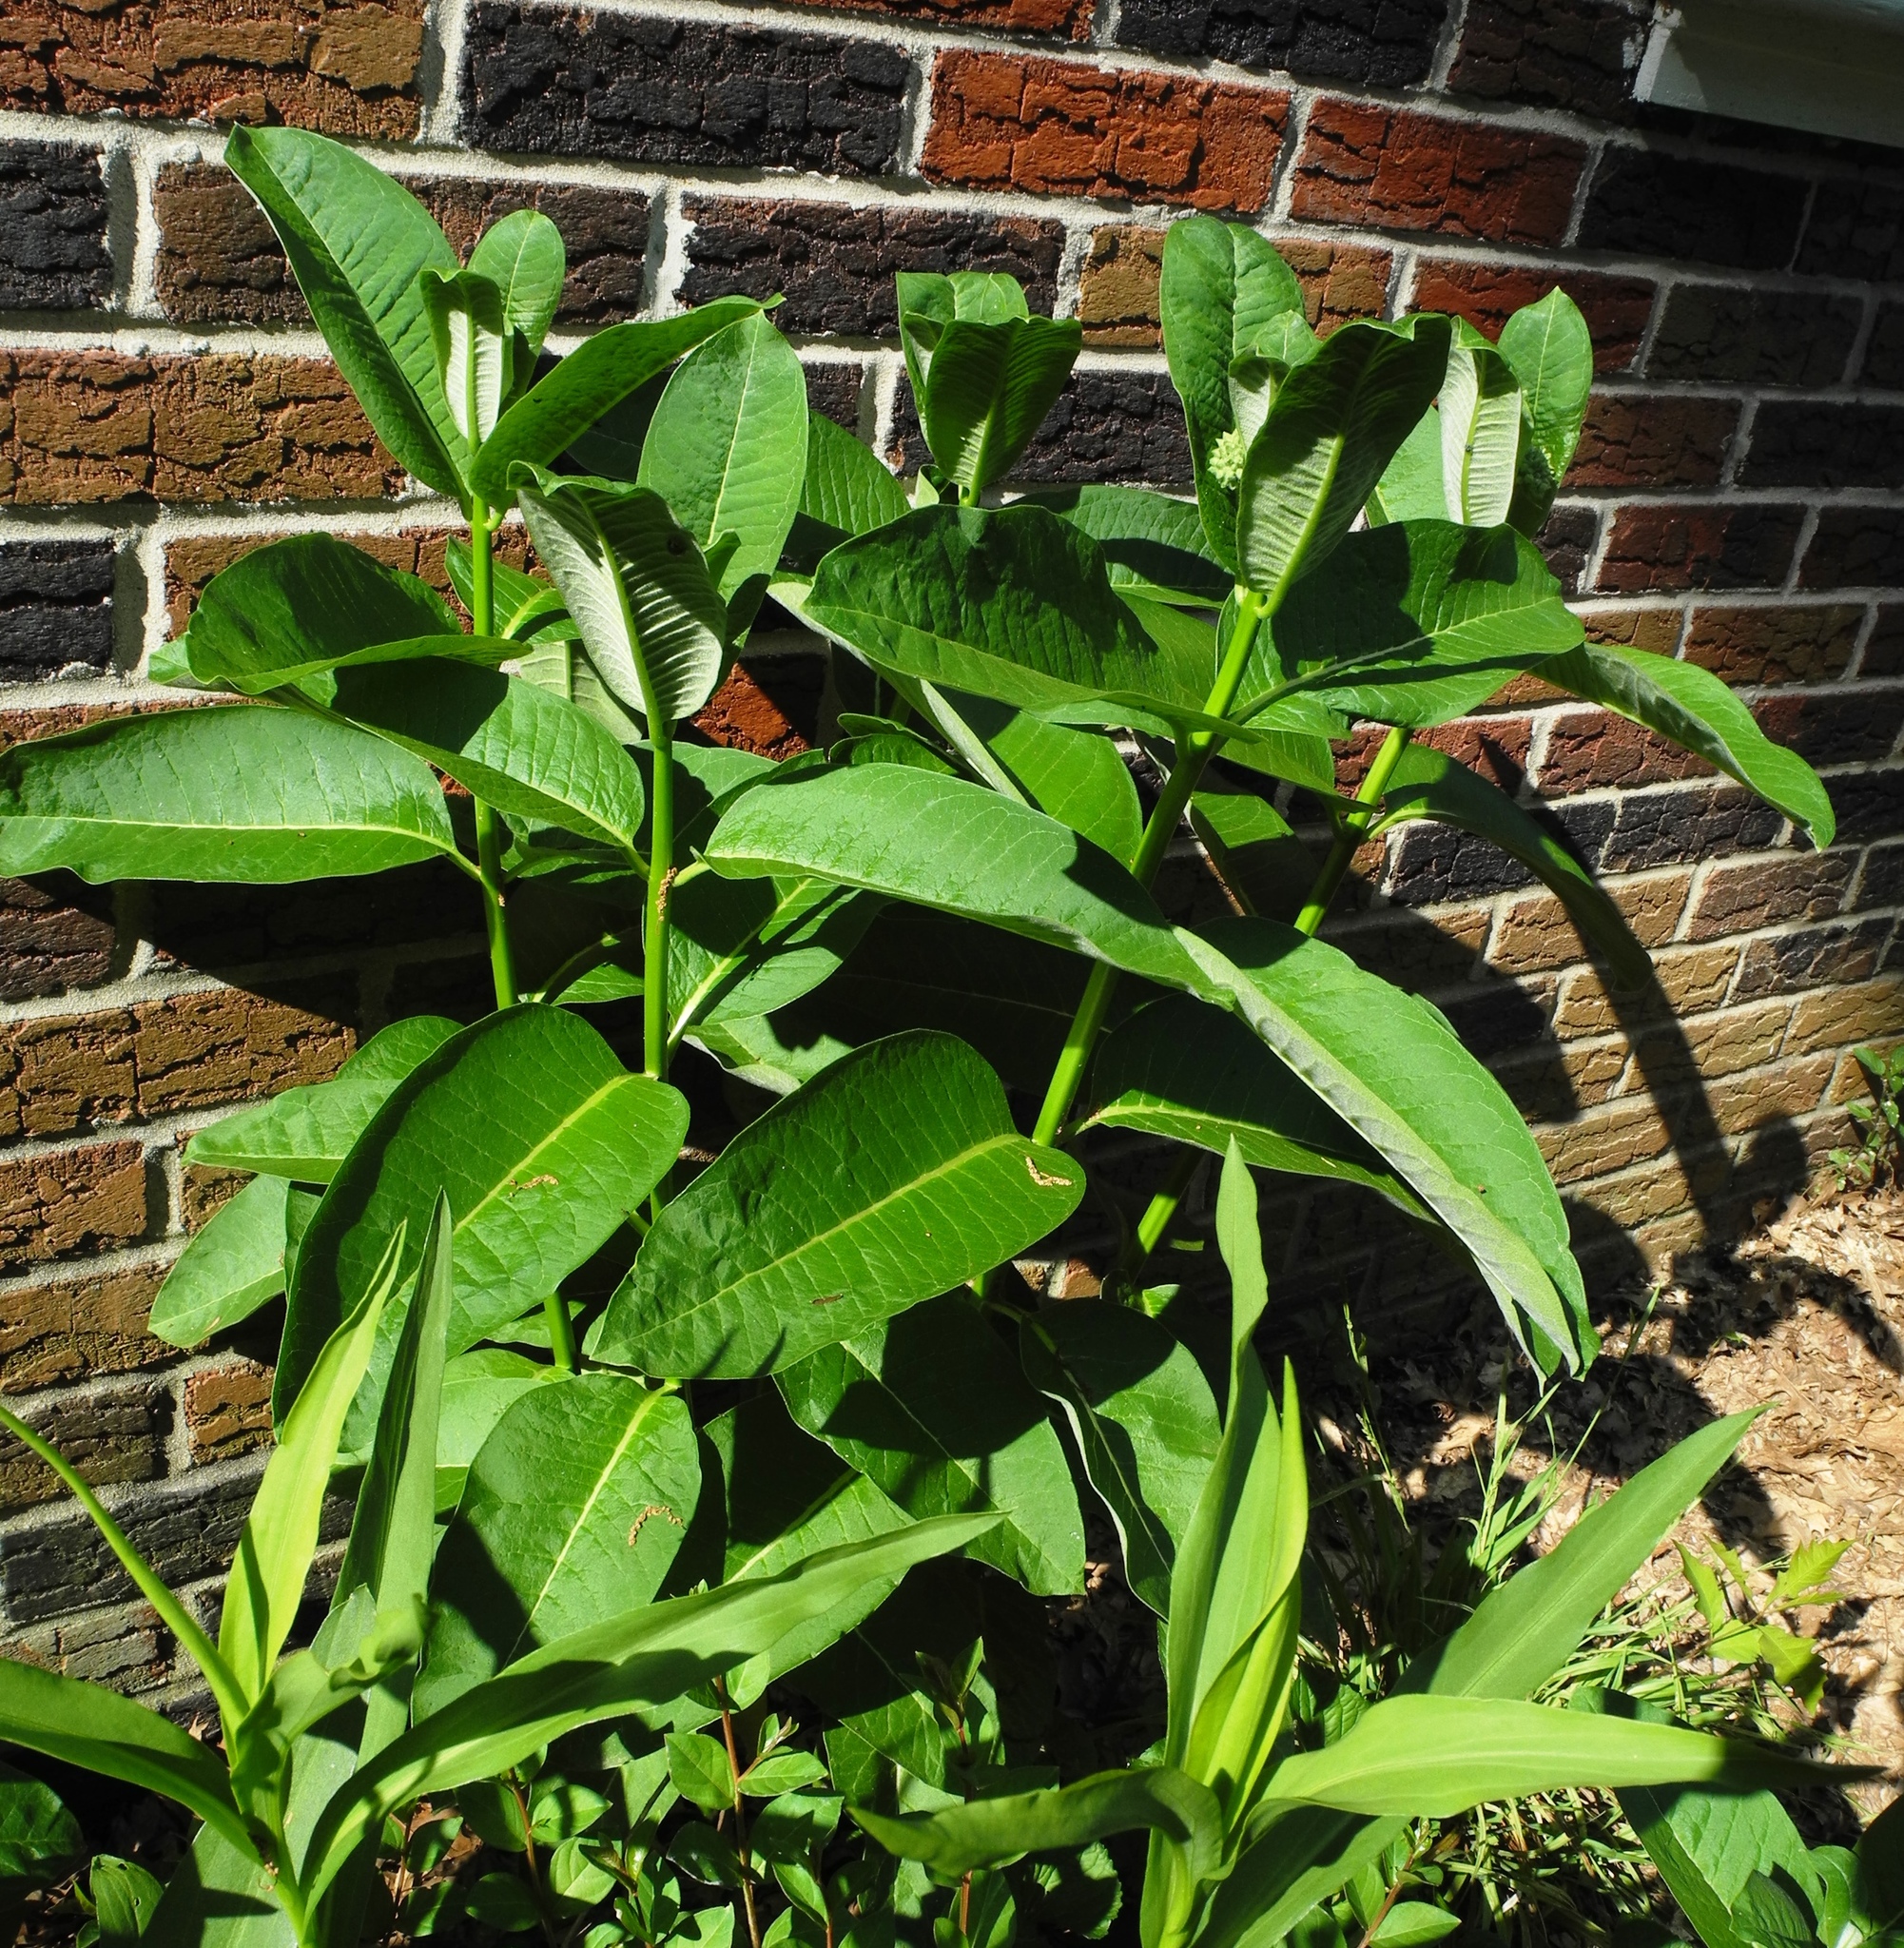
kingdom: Plantae
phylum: Tracheophyta
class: Magnoliopsida
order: Gentianales
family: Apocynaceae
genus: Asclepias
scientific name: Asclepias syriaca
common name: Common milkweed
